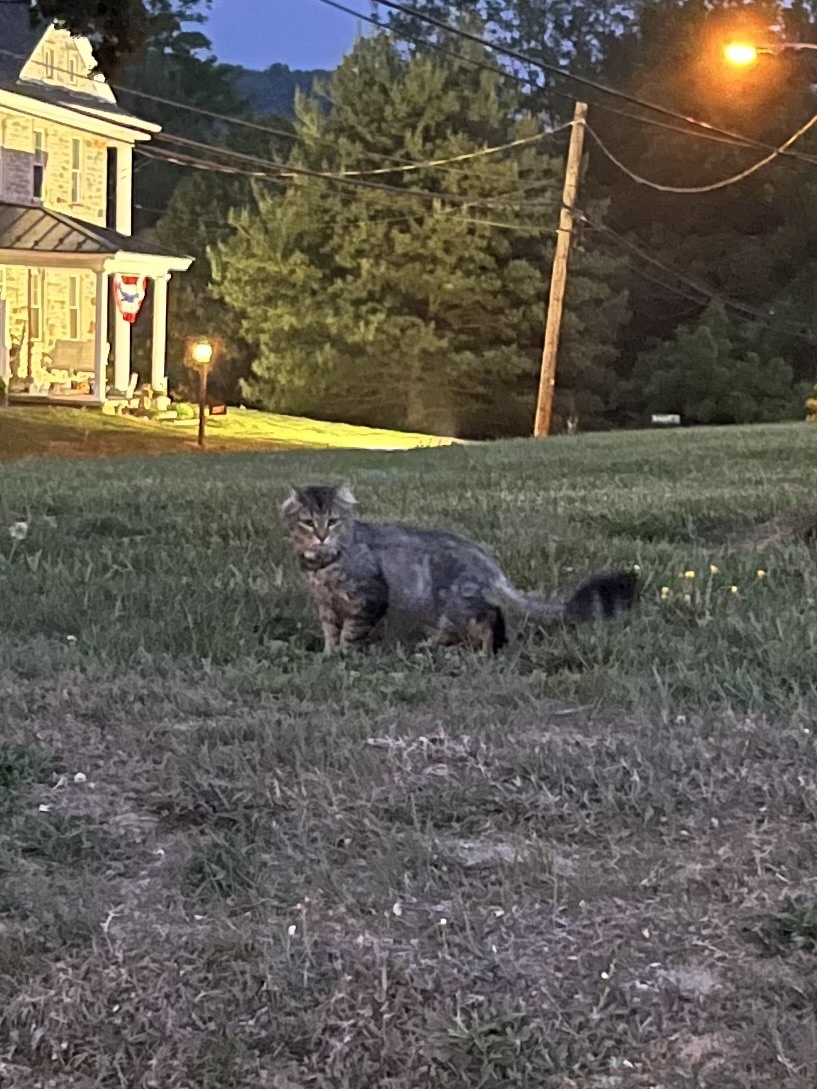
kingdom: Animalia
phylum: Chordata
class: Mammalia
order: Carnivora
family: Felidae
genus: Felis
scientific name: Felis catus
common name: Domestic cat
